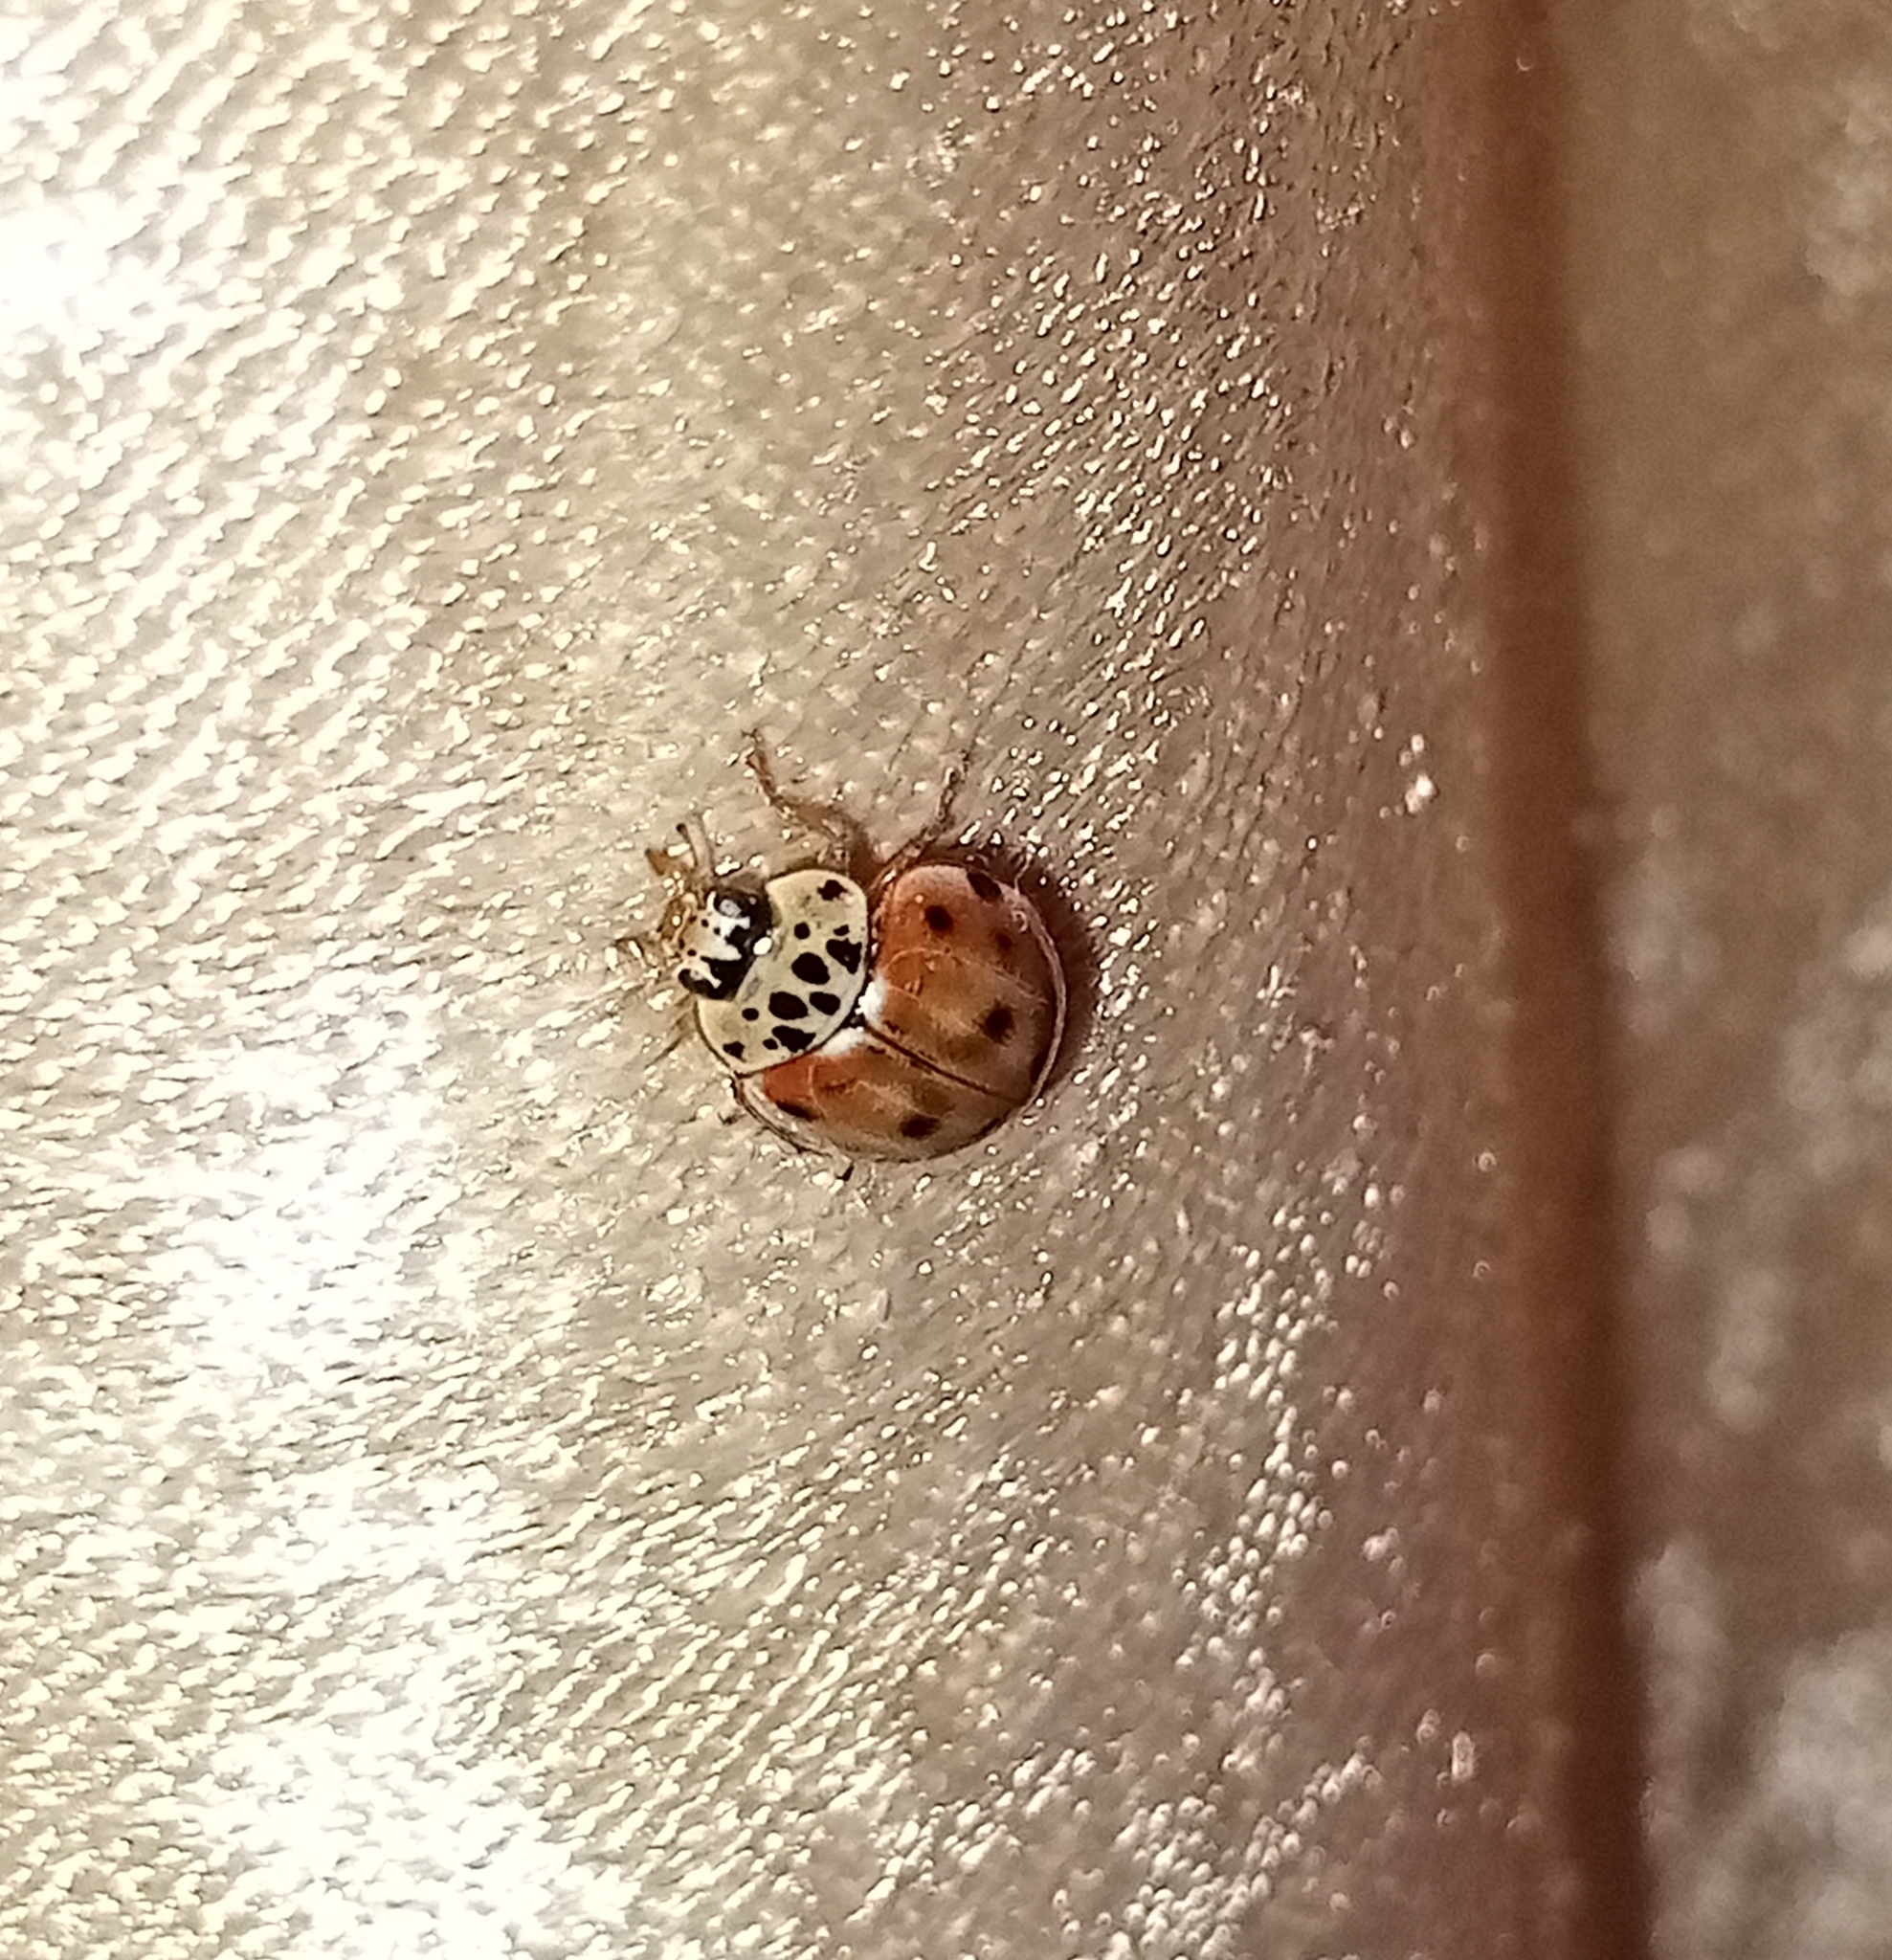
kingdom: Animalia
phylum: Arthropoda
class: Insecta
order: Coleoptera
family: Coccinellidae
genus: Harmonia
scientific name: Harmonia quadripunctata
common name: Cream-streaked ladybird
